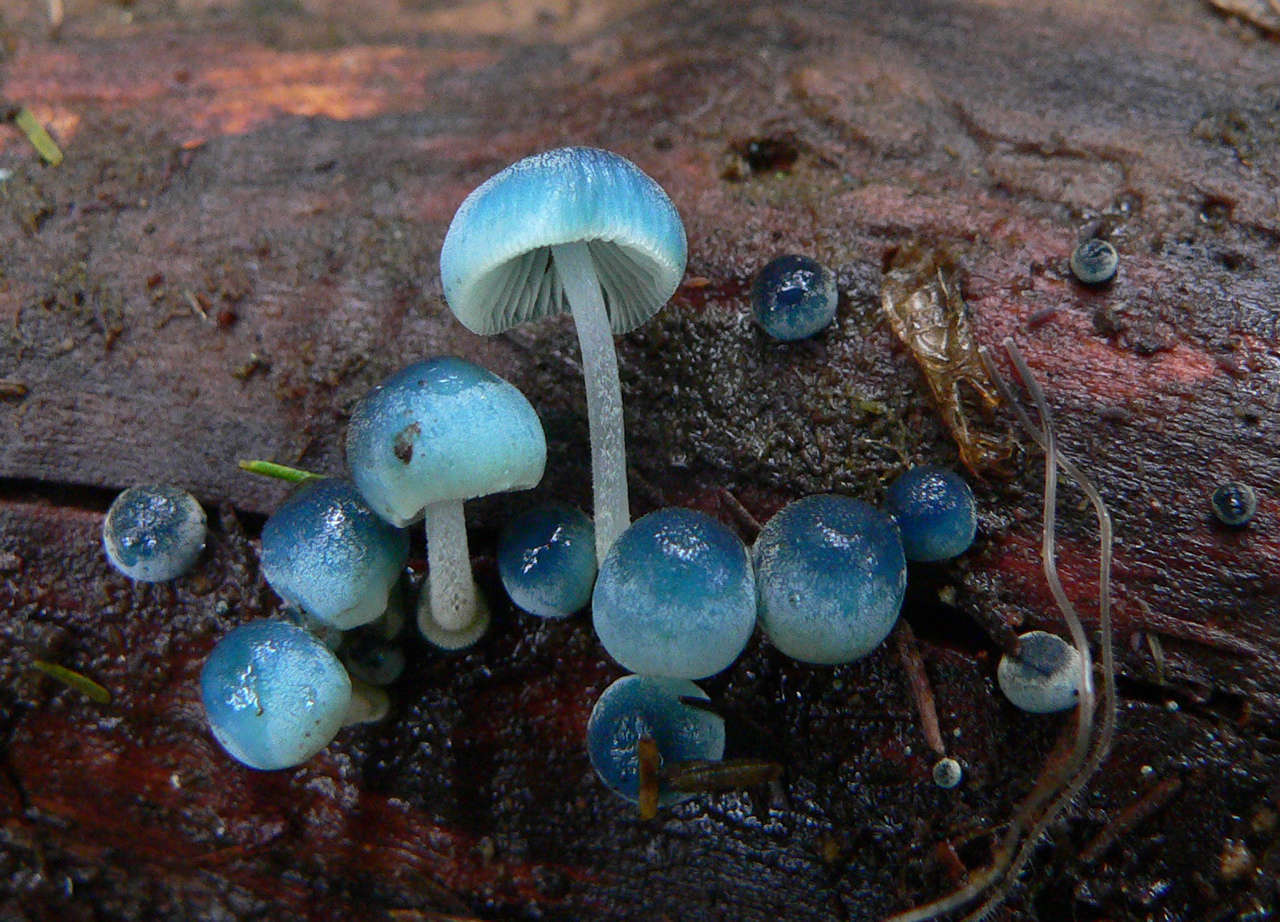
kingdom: Fungi
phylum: Basidiomycota
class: Agaricomycetes
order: Agaricales
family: Mycenaceae
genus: Mycena
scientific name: Mycena interrupta
